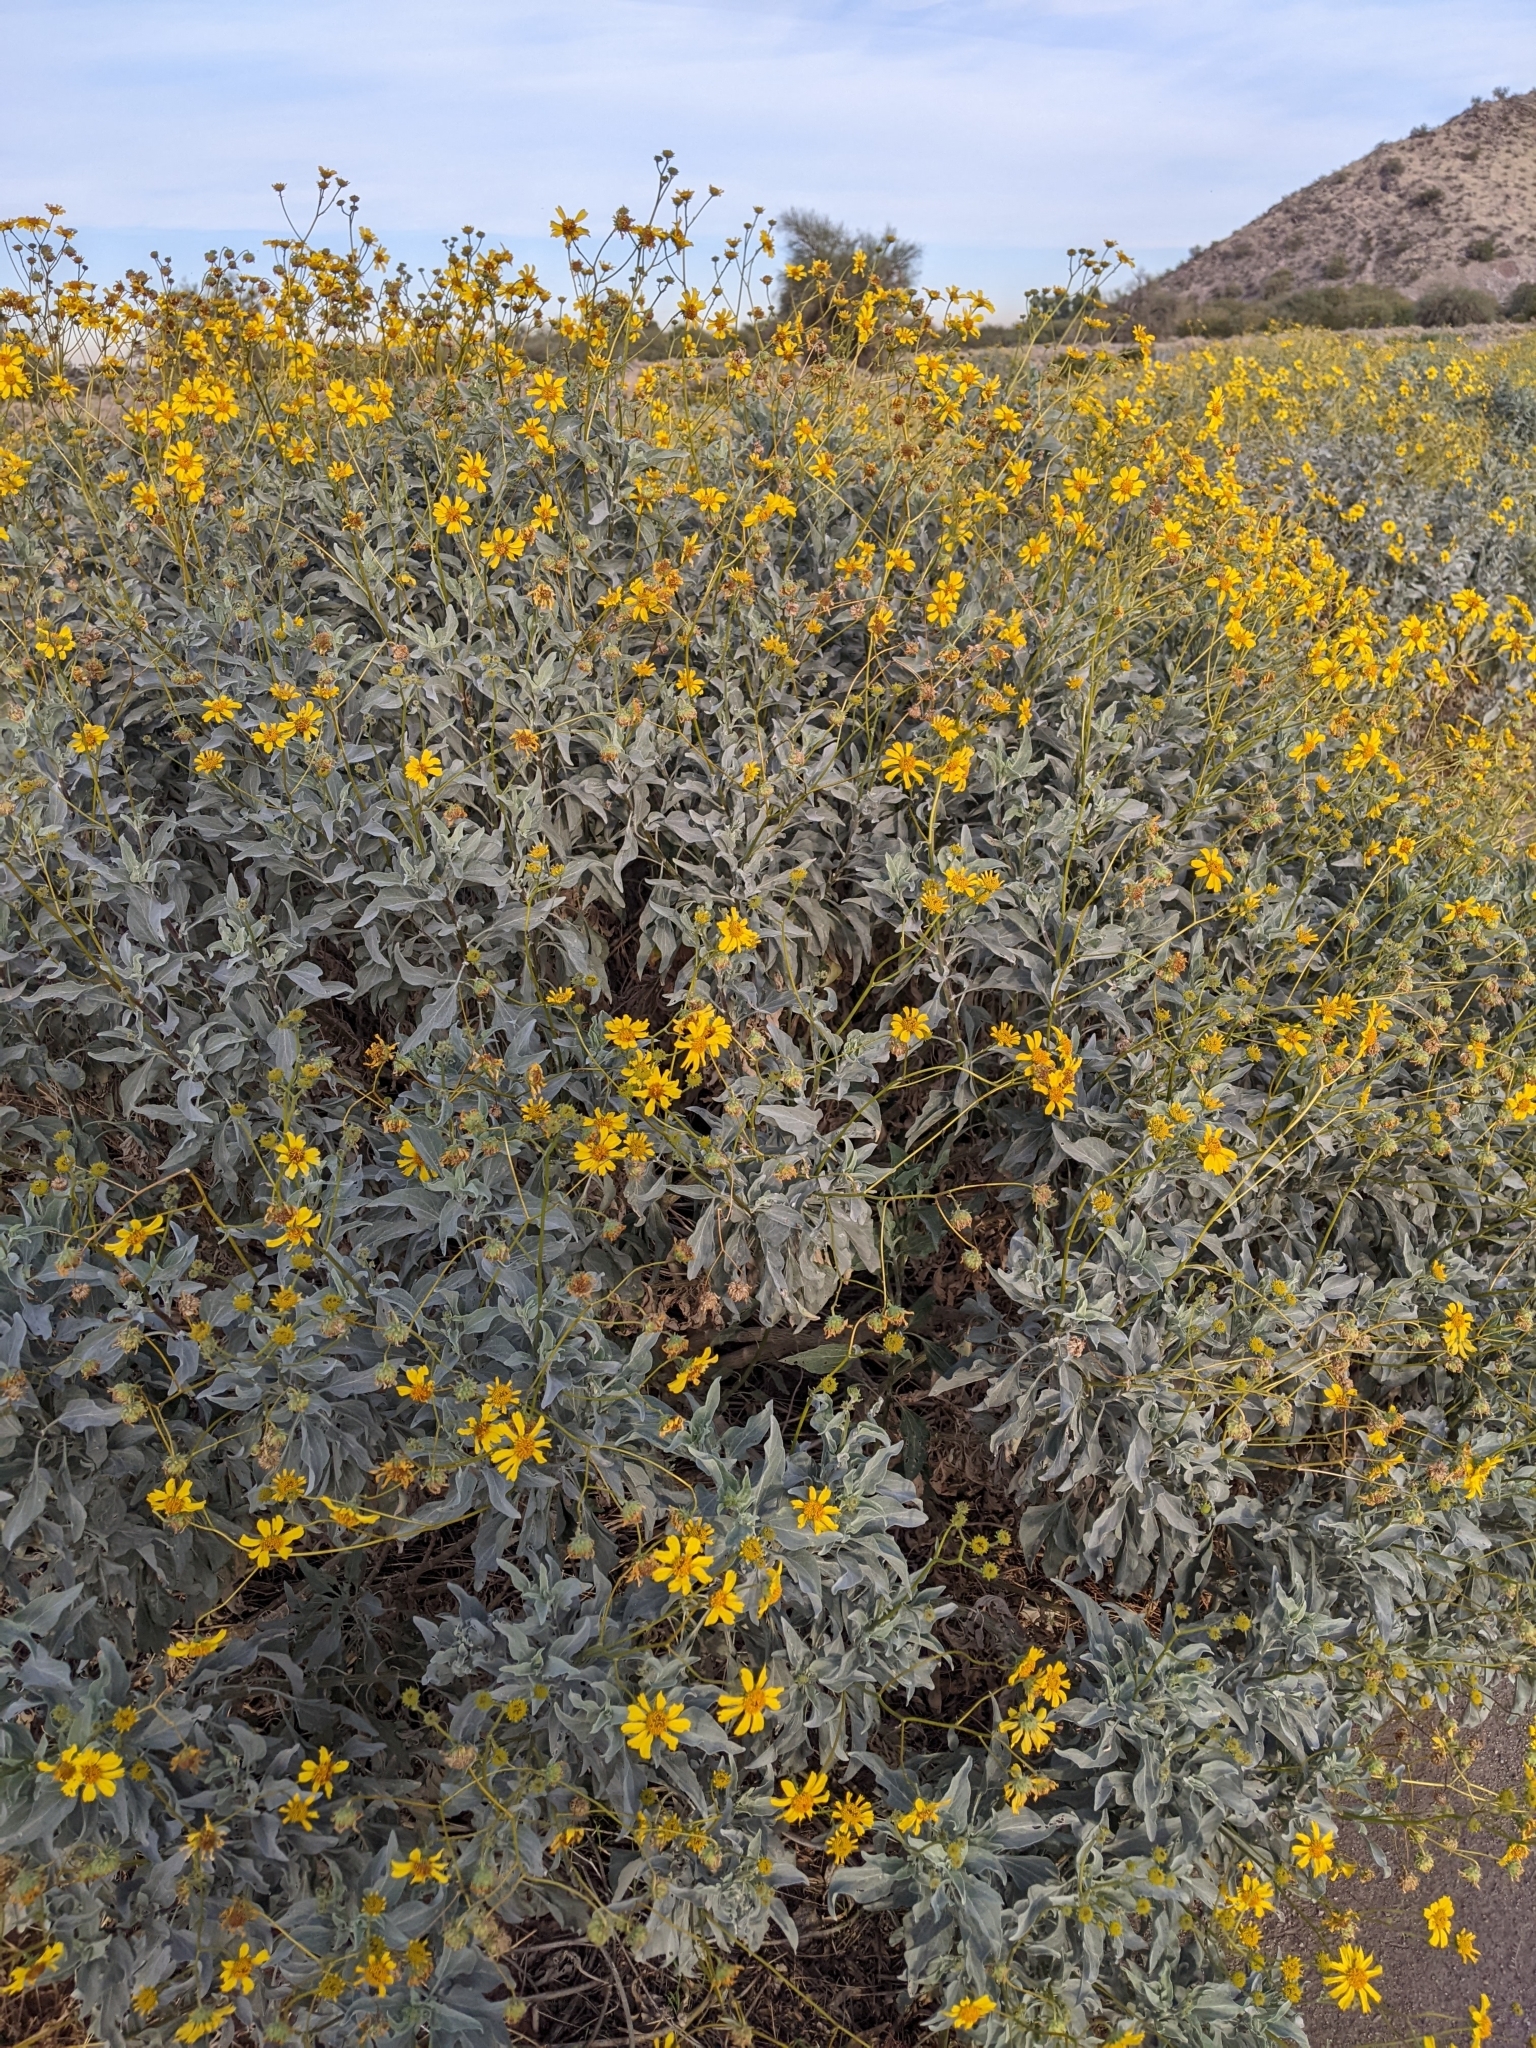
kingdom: Plantae
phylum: Tracheophyta
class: Magnoliopsida
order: Asterales
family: Asteraceae
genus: Encelia
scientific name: Encelia farinosa
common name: Brittlebush
